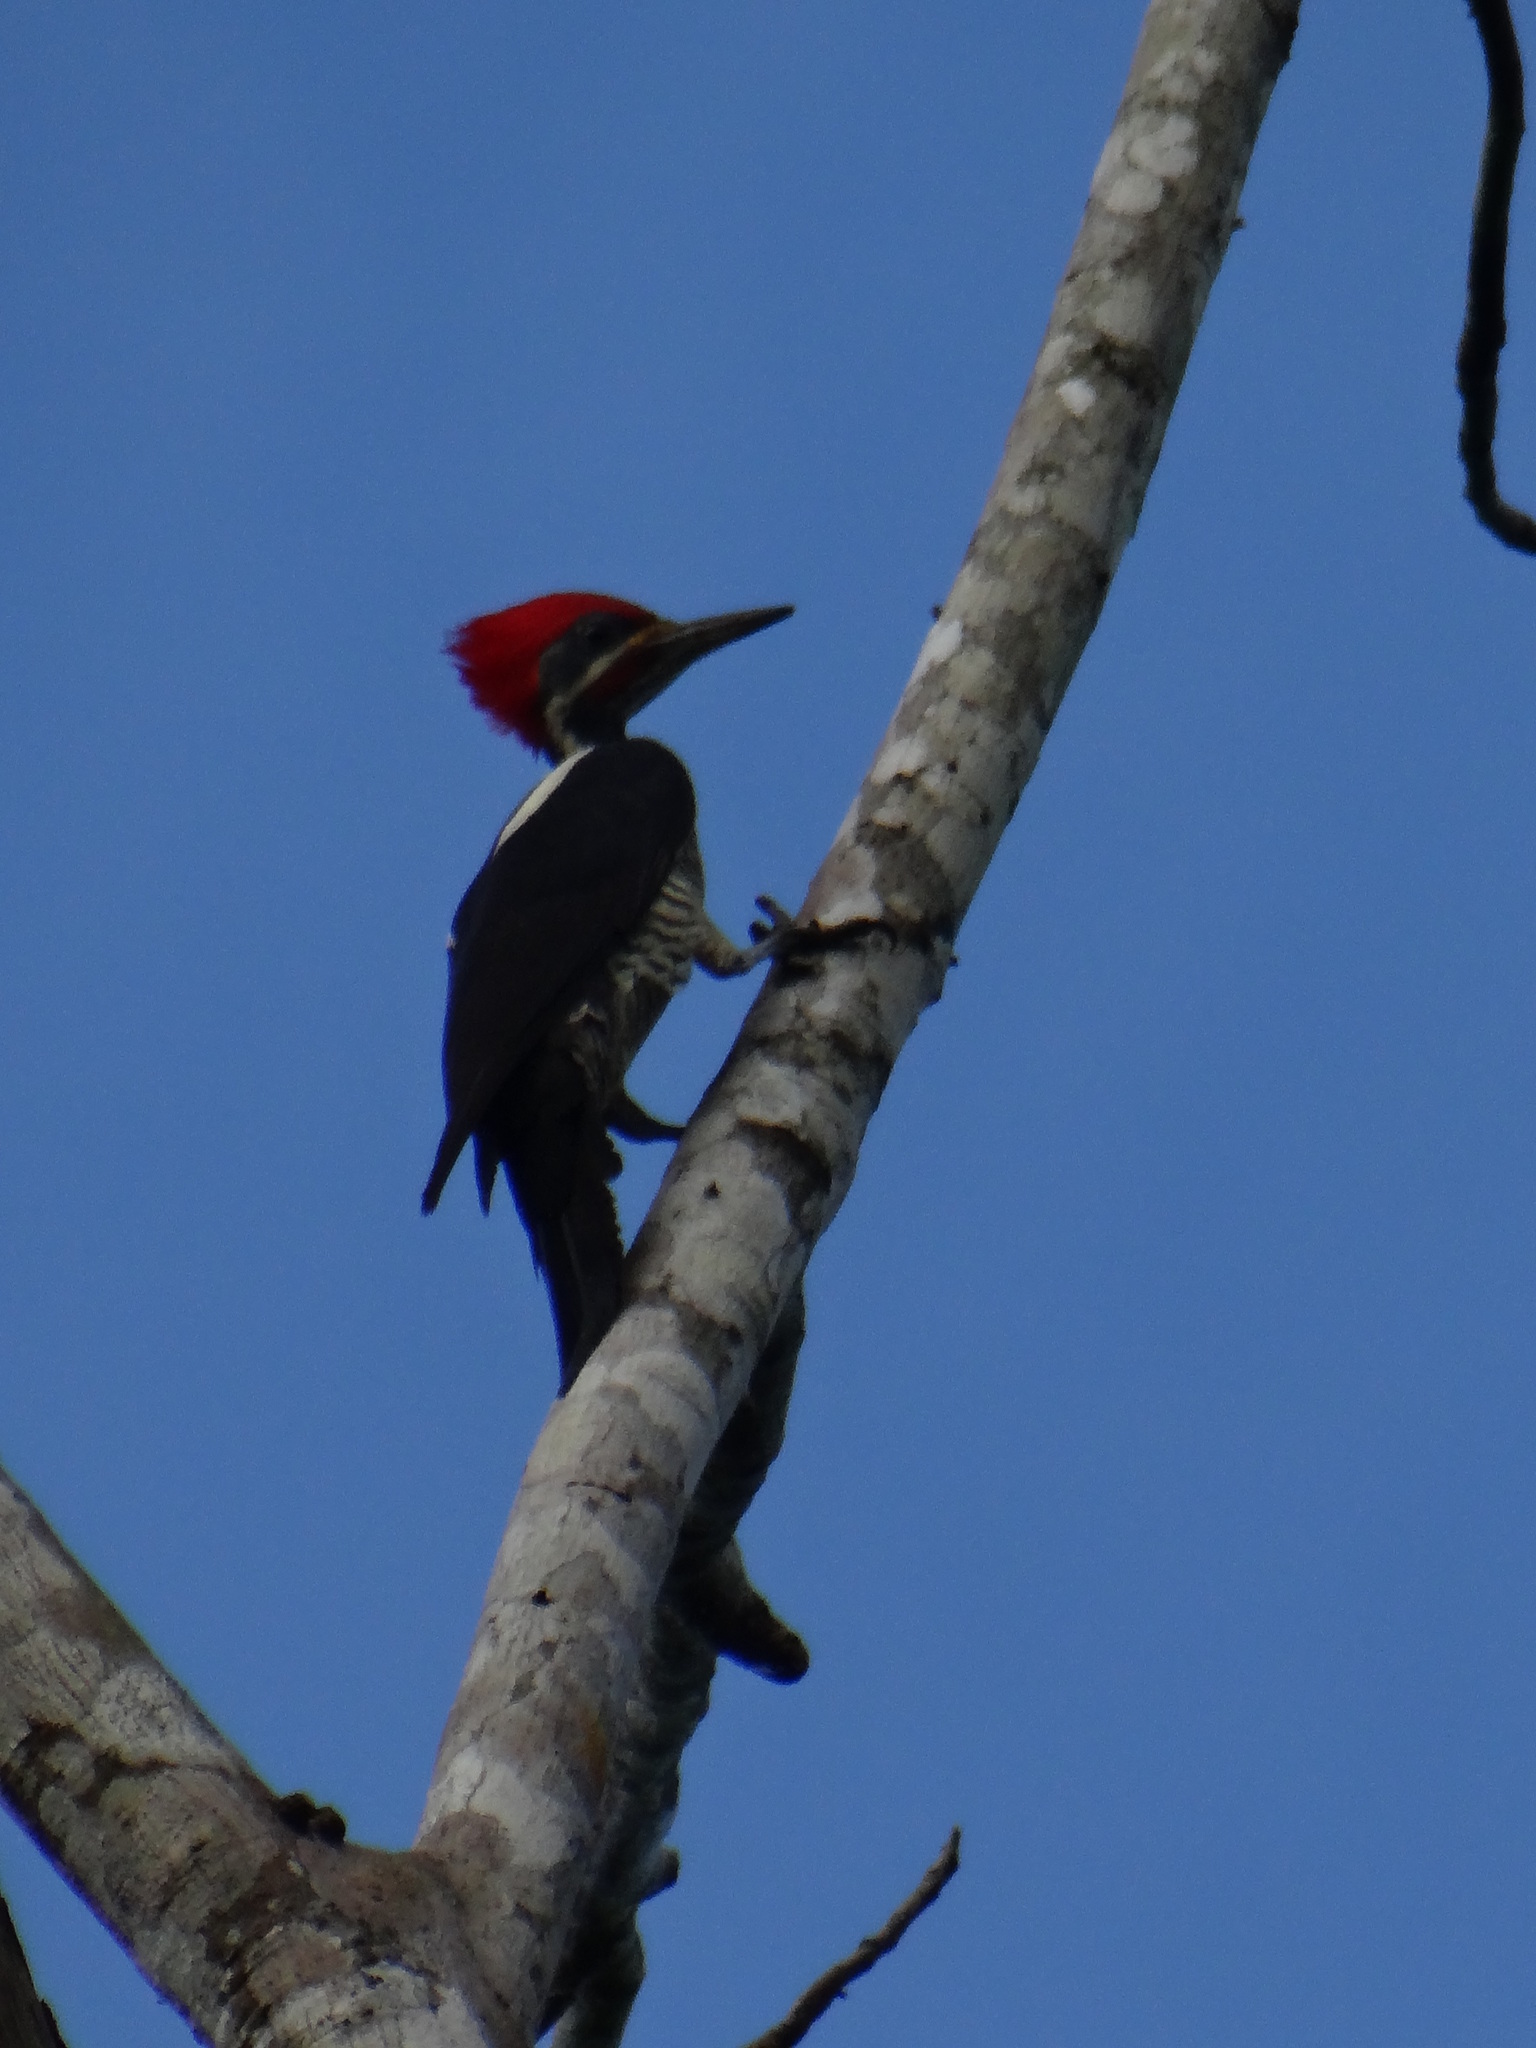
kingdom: Animalia
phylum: Chordata
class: Aves
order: Piciformes
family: Picidae
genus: Dryocopus
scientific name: Dryocopus lineatus
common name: Lineated woodpecker
